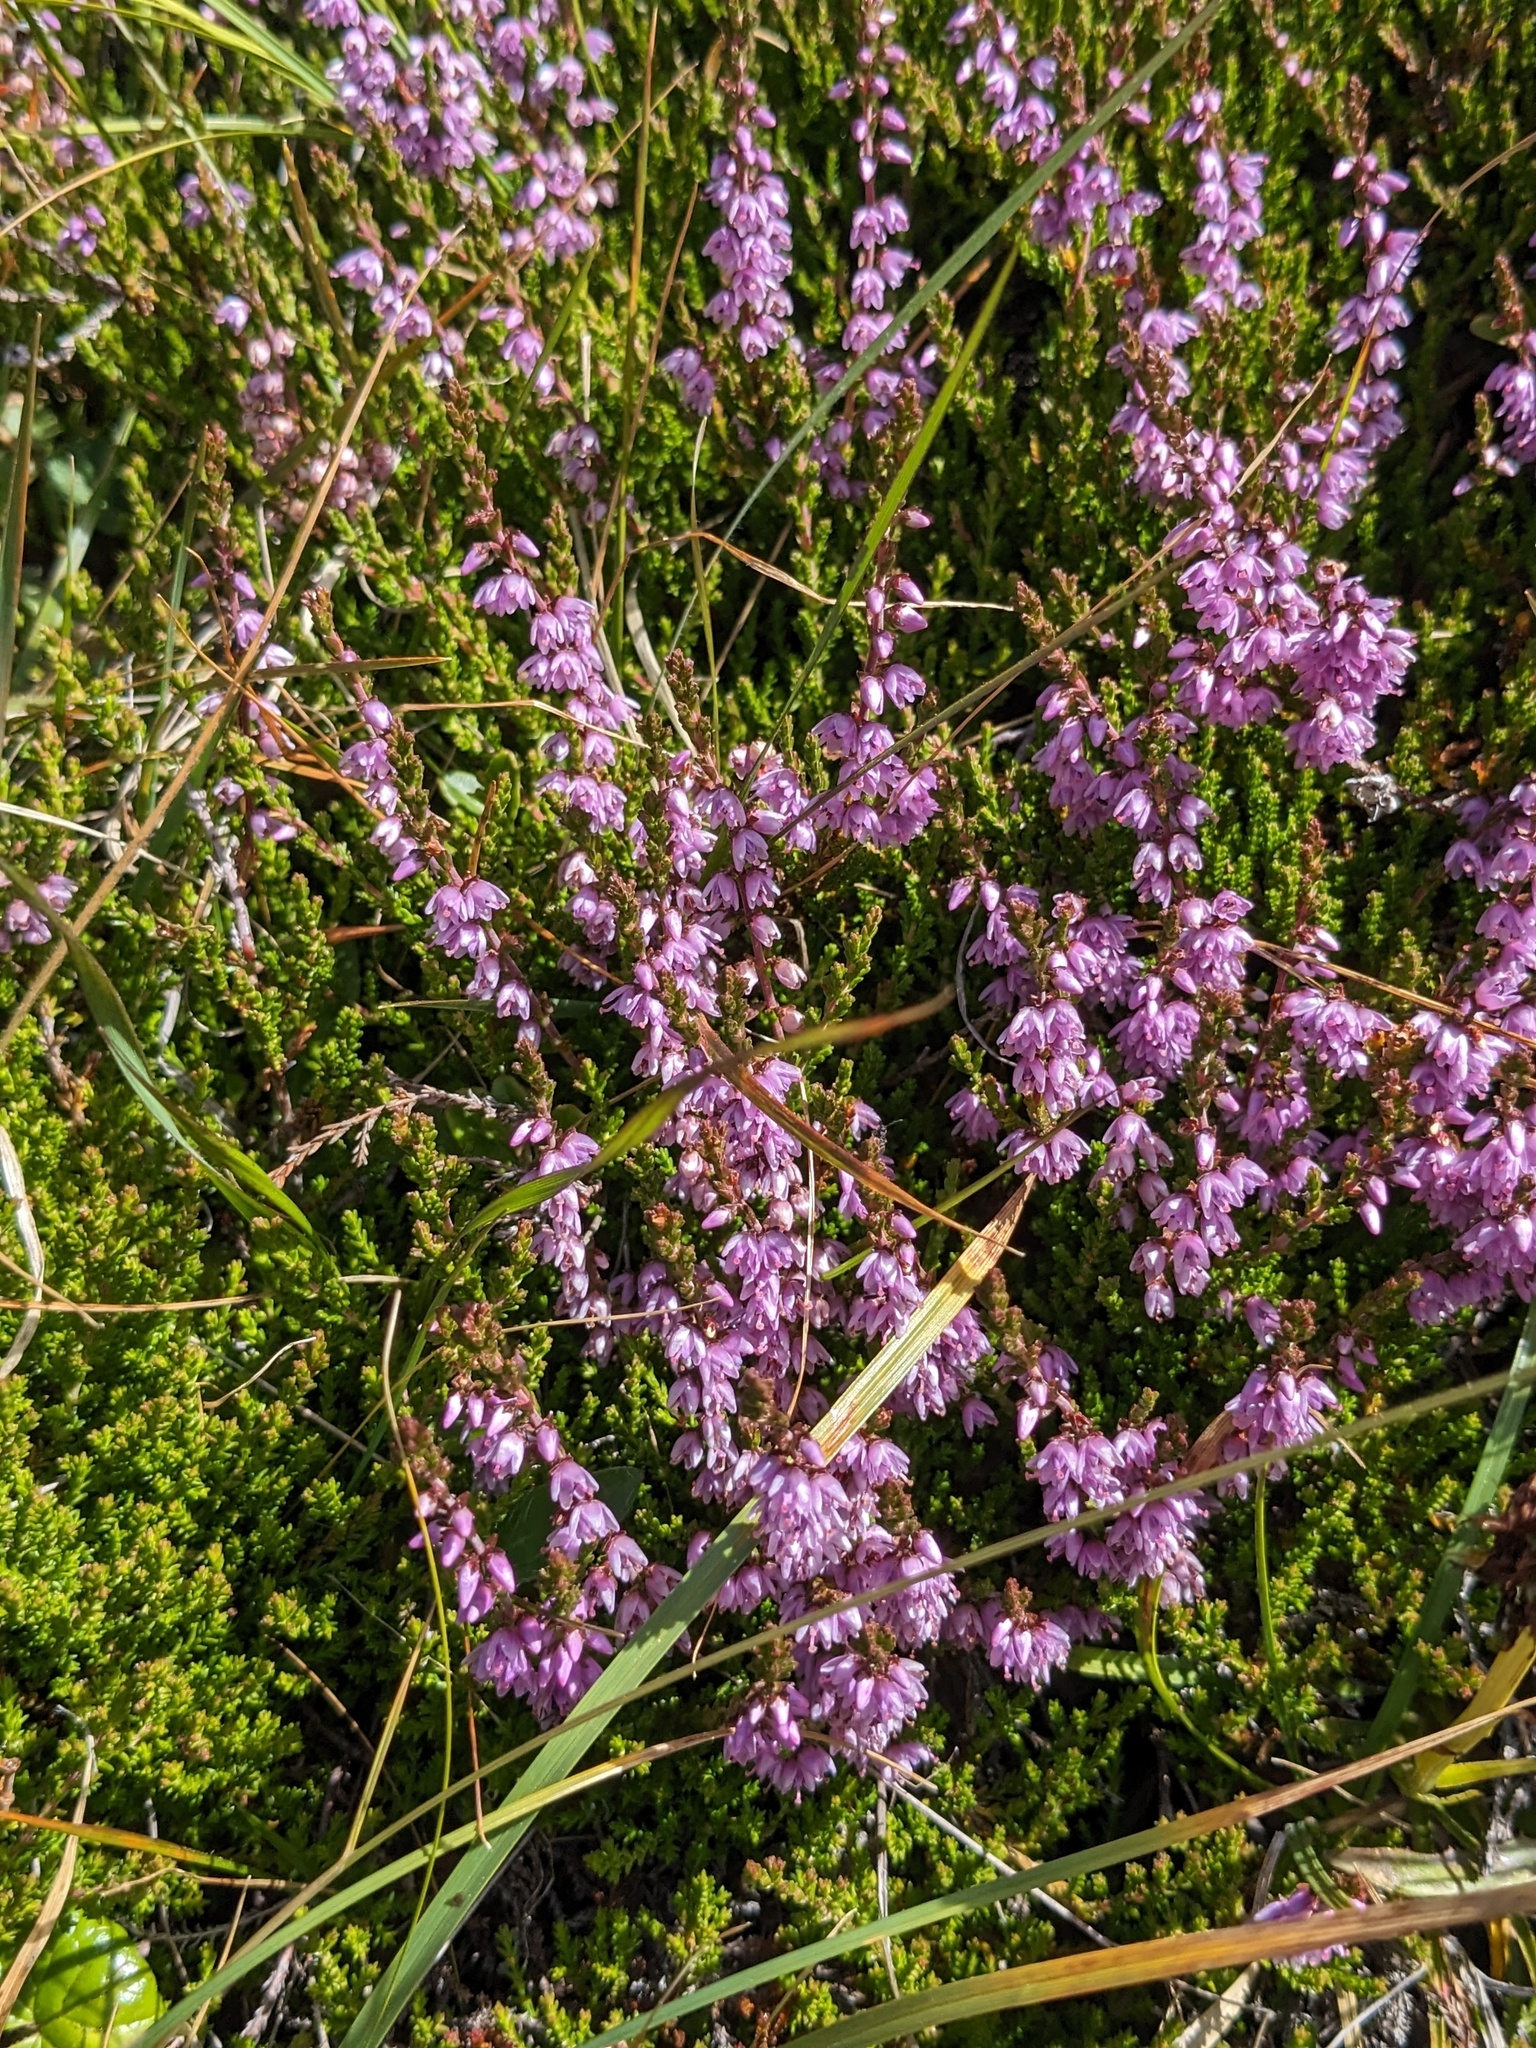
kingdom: Plantae
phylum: Tracheophyta
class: Magnoliopsida
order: Ericales
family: Ericaceae
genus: Calluna
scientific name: Calluna vulgaris
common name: Heather
